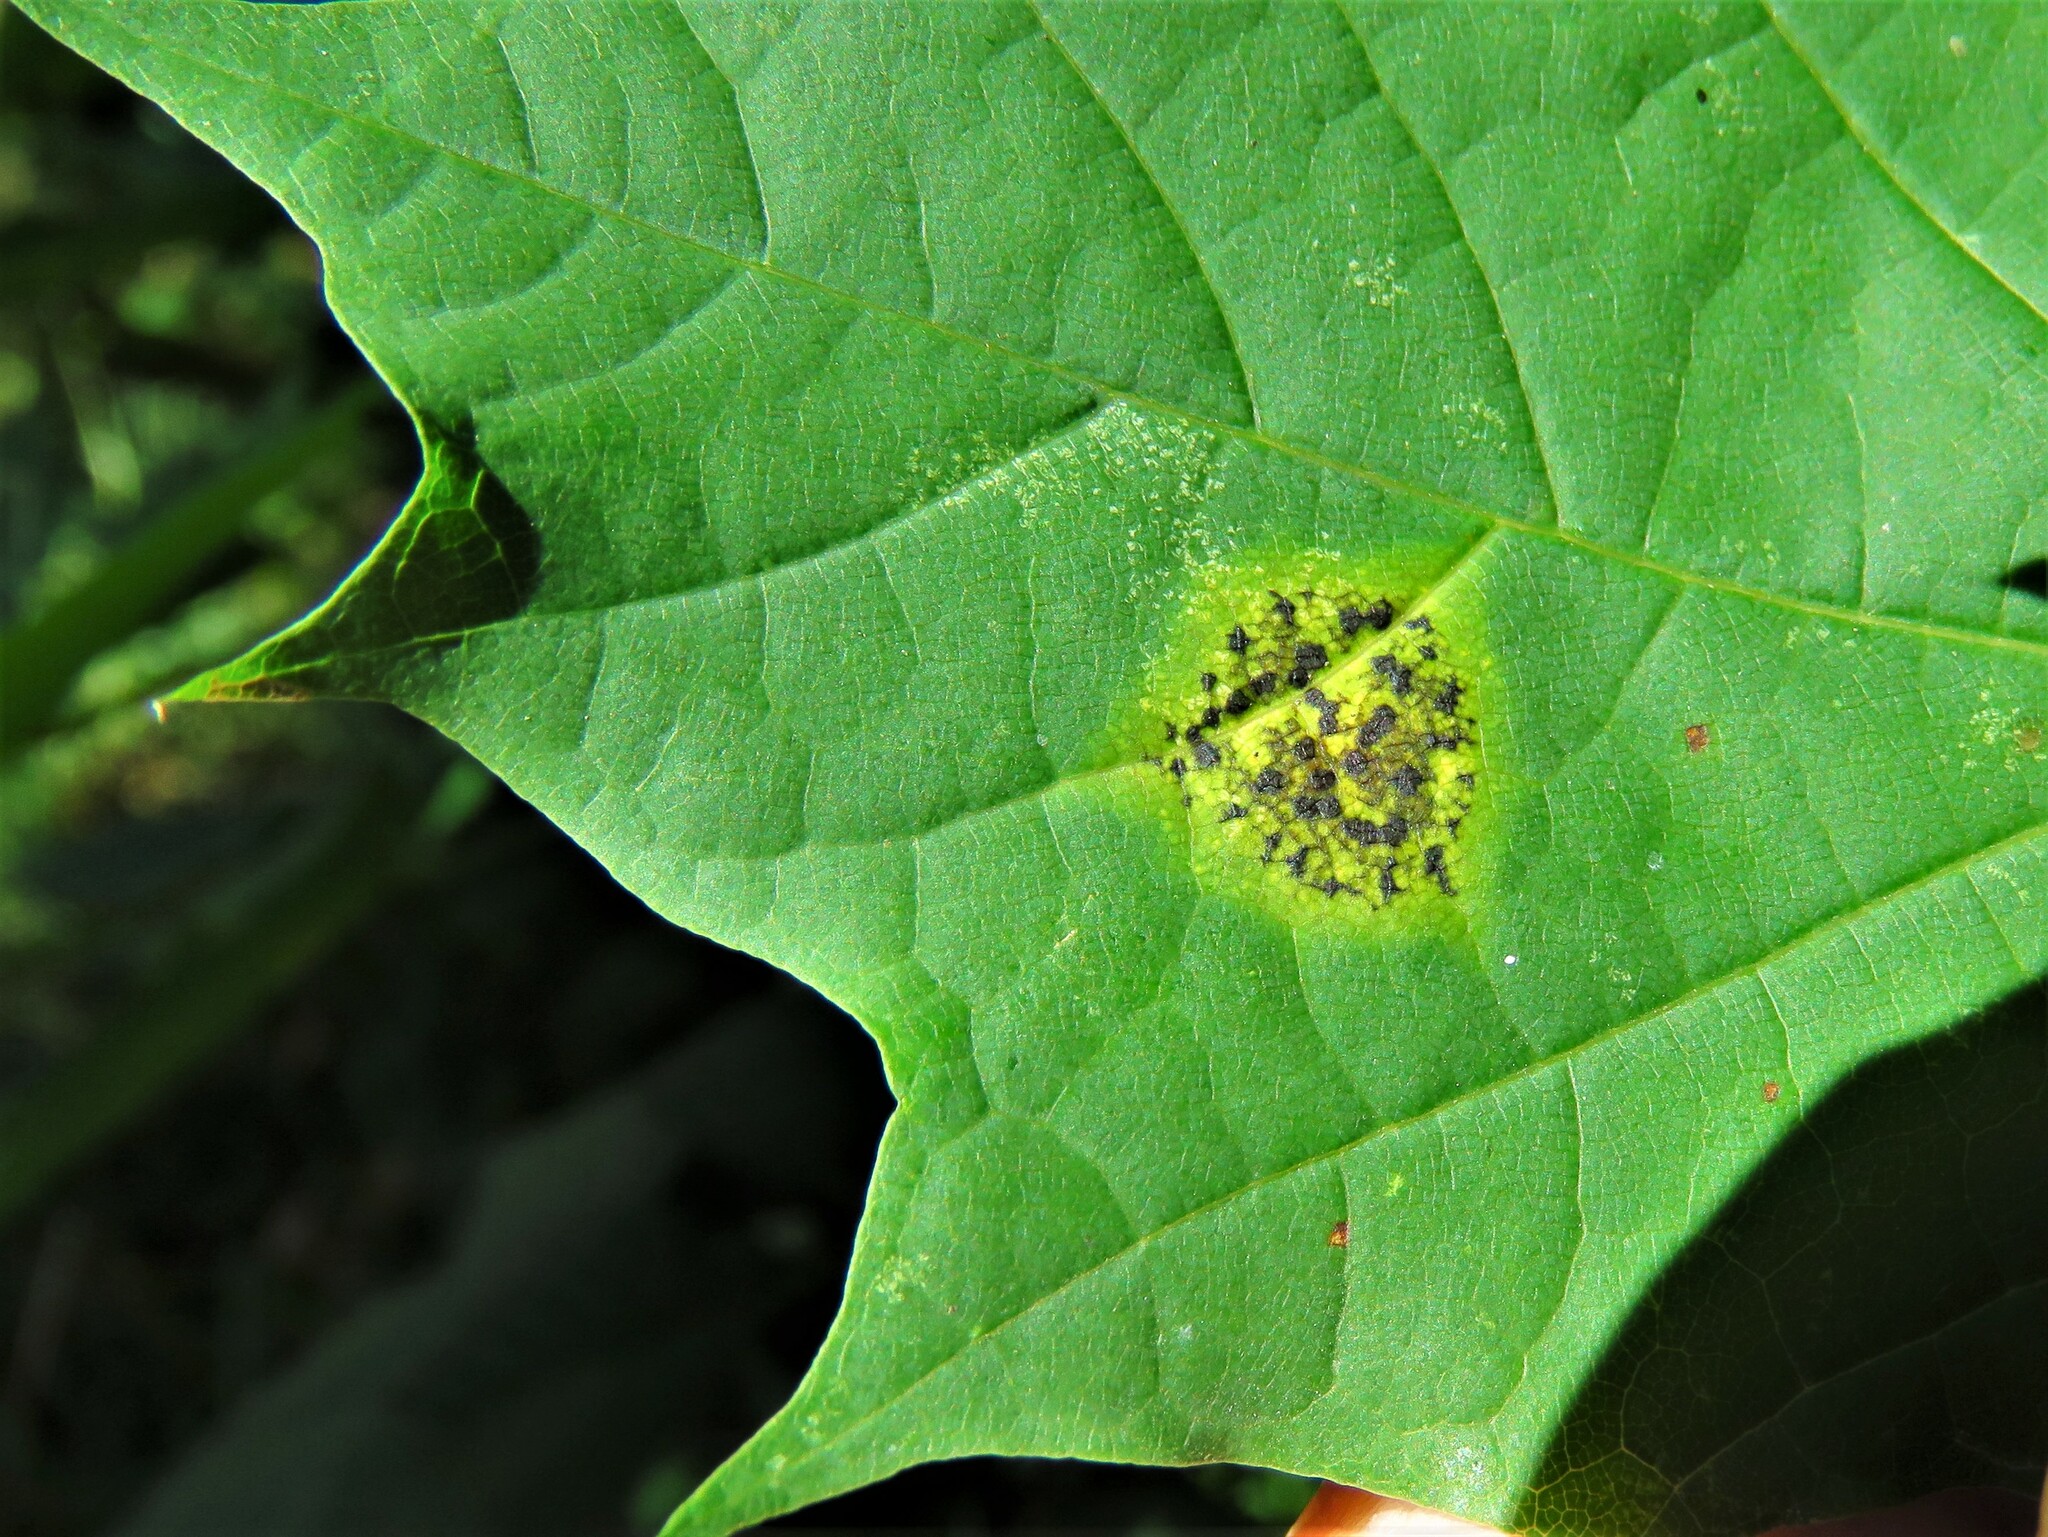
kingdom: Fungi
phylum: Ascomycota
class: Leotiomycetes
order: Rhytismatales
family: Rhytismataceae
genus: Rhytisma
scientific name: Rhytisma acerinum
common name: European tar spot
